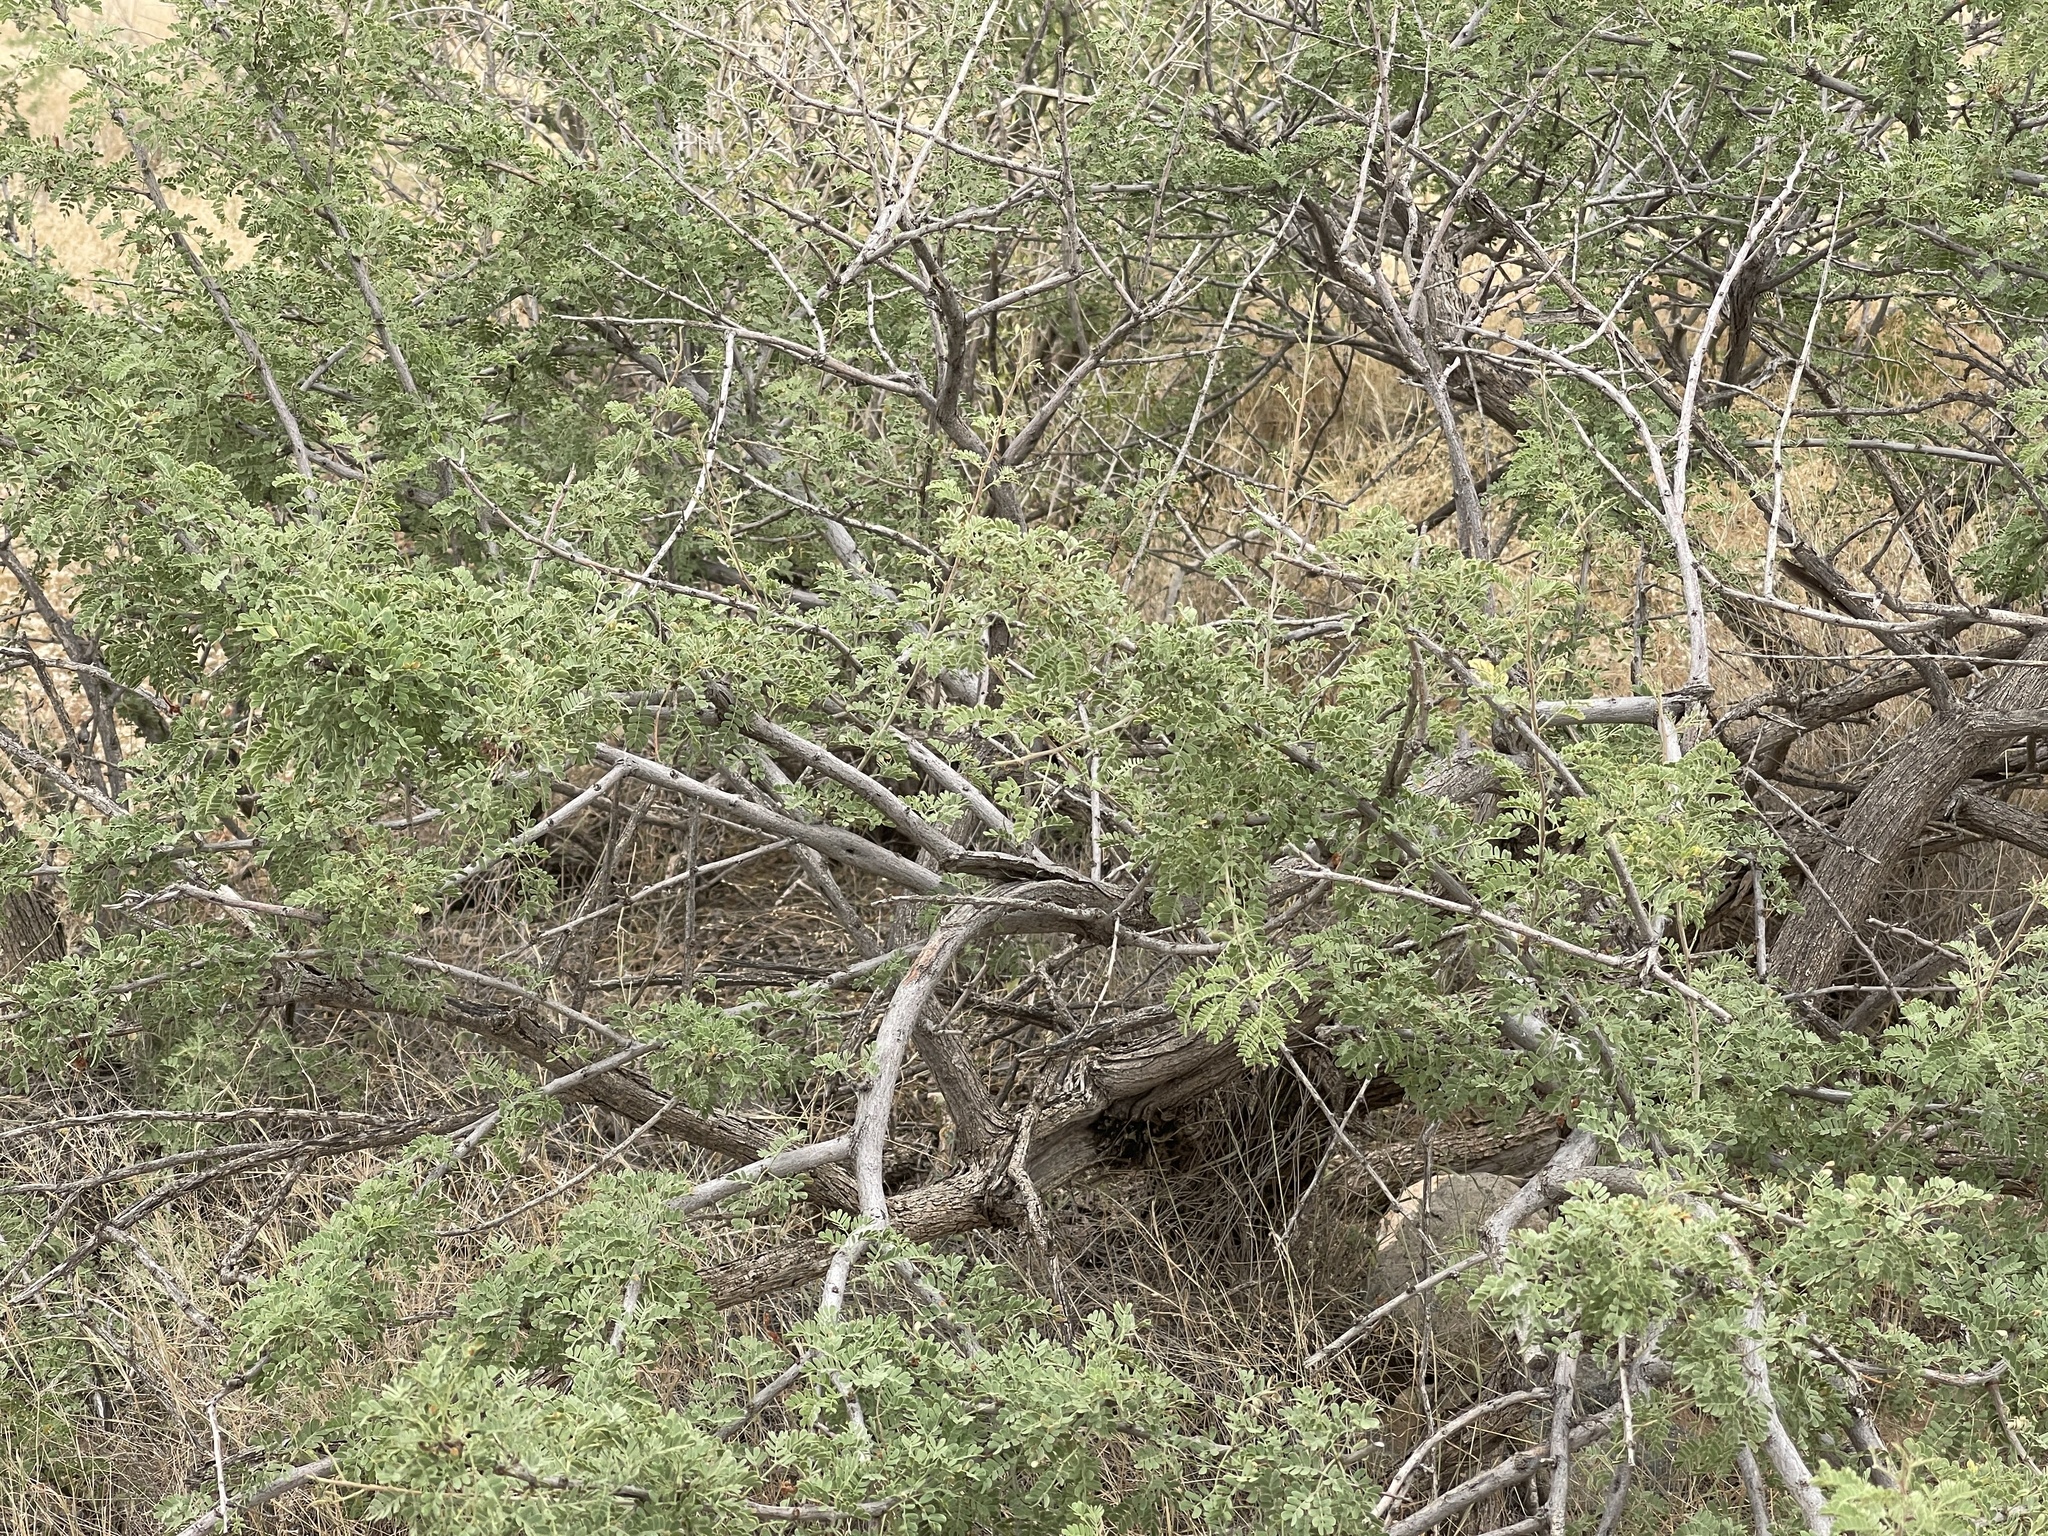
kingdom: Plantae
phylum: Tracheophyta
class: Magnoliopsida
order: Fabales
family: Fabaceae
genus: Senegalia
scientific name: Senegalia greggii
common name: Texas-mimosa
